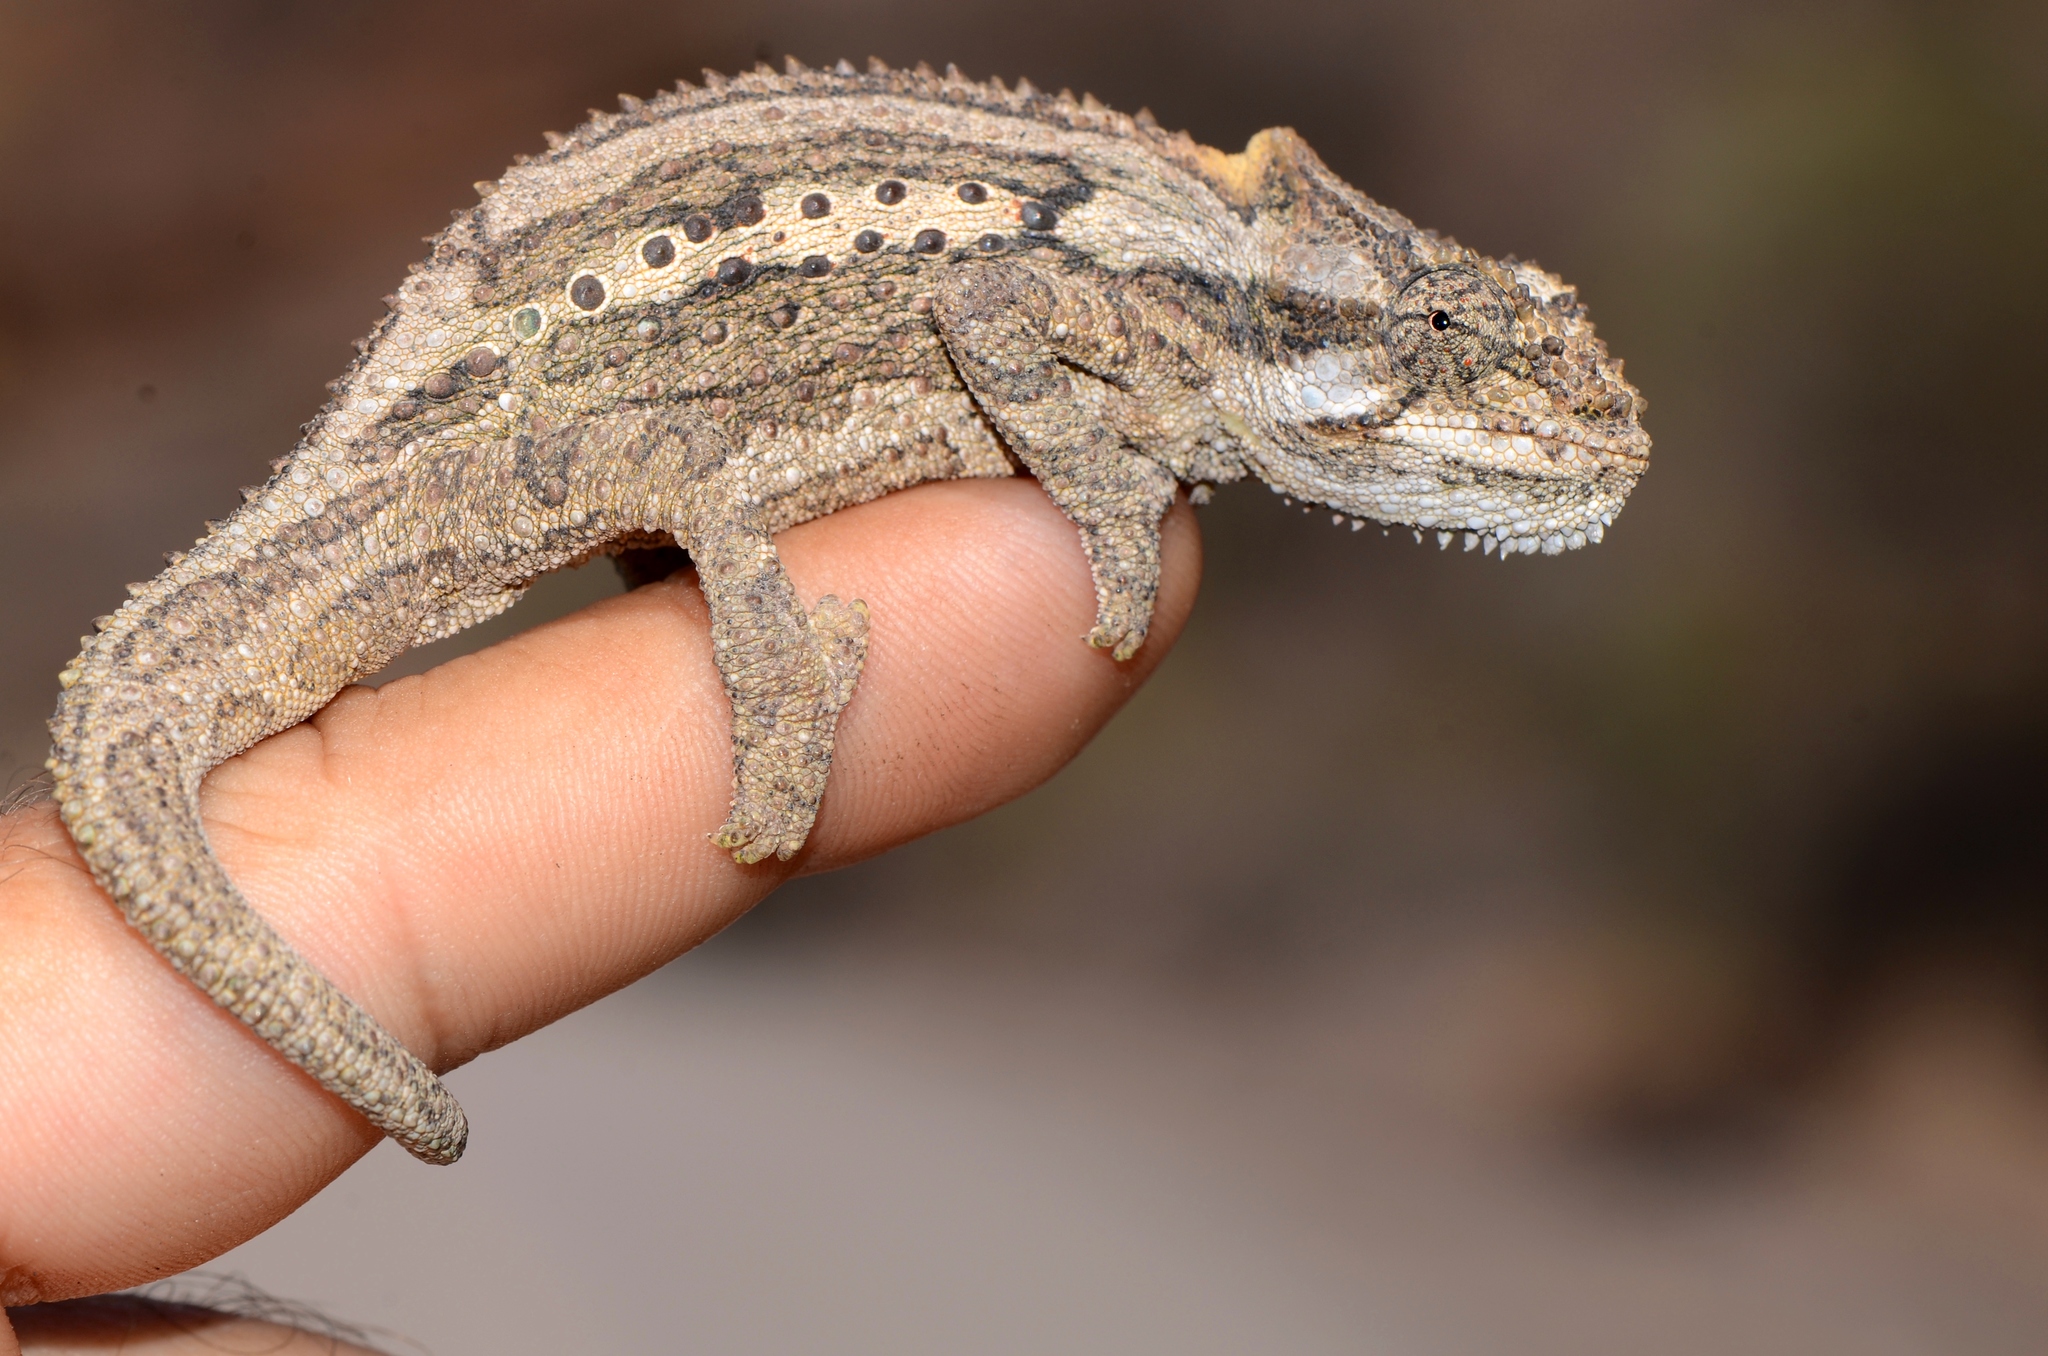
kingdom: Animalia
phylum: Chordata
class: Squamata
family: Chamaeleonidae
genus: Bradypodion
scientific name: Bradypodion ventrale
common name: Eastern cape dwarf chameleon
